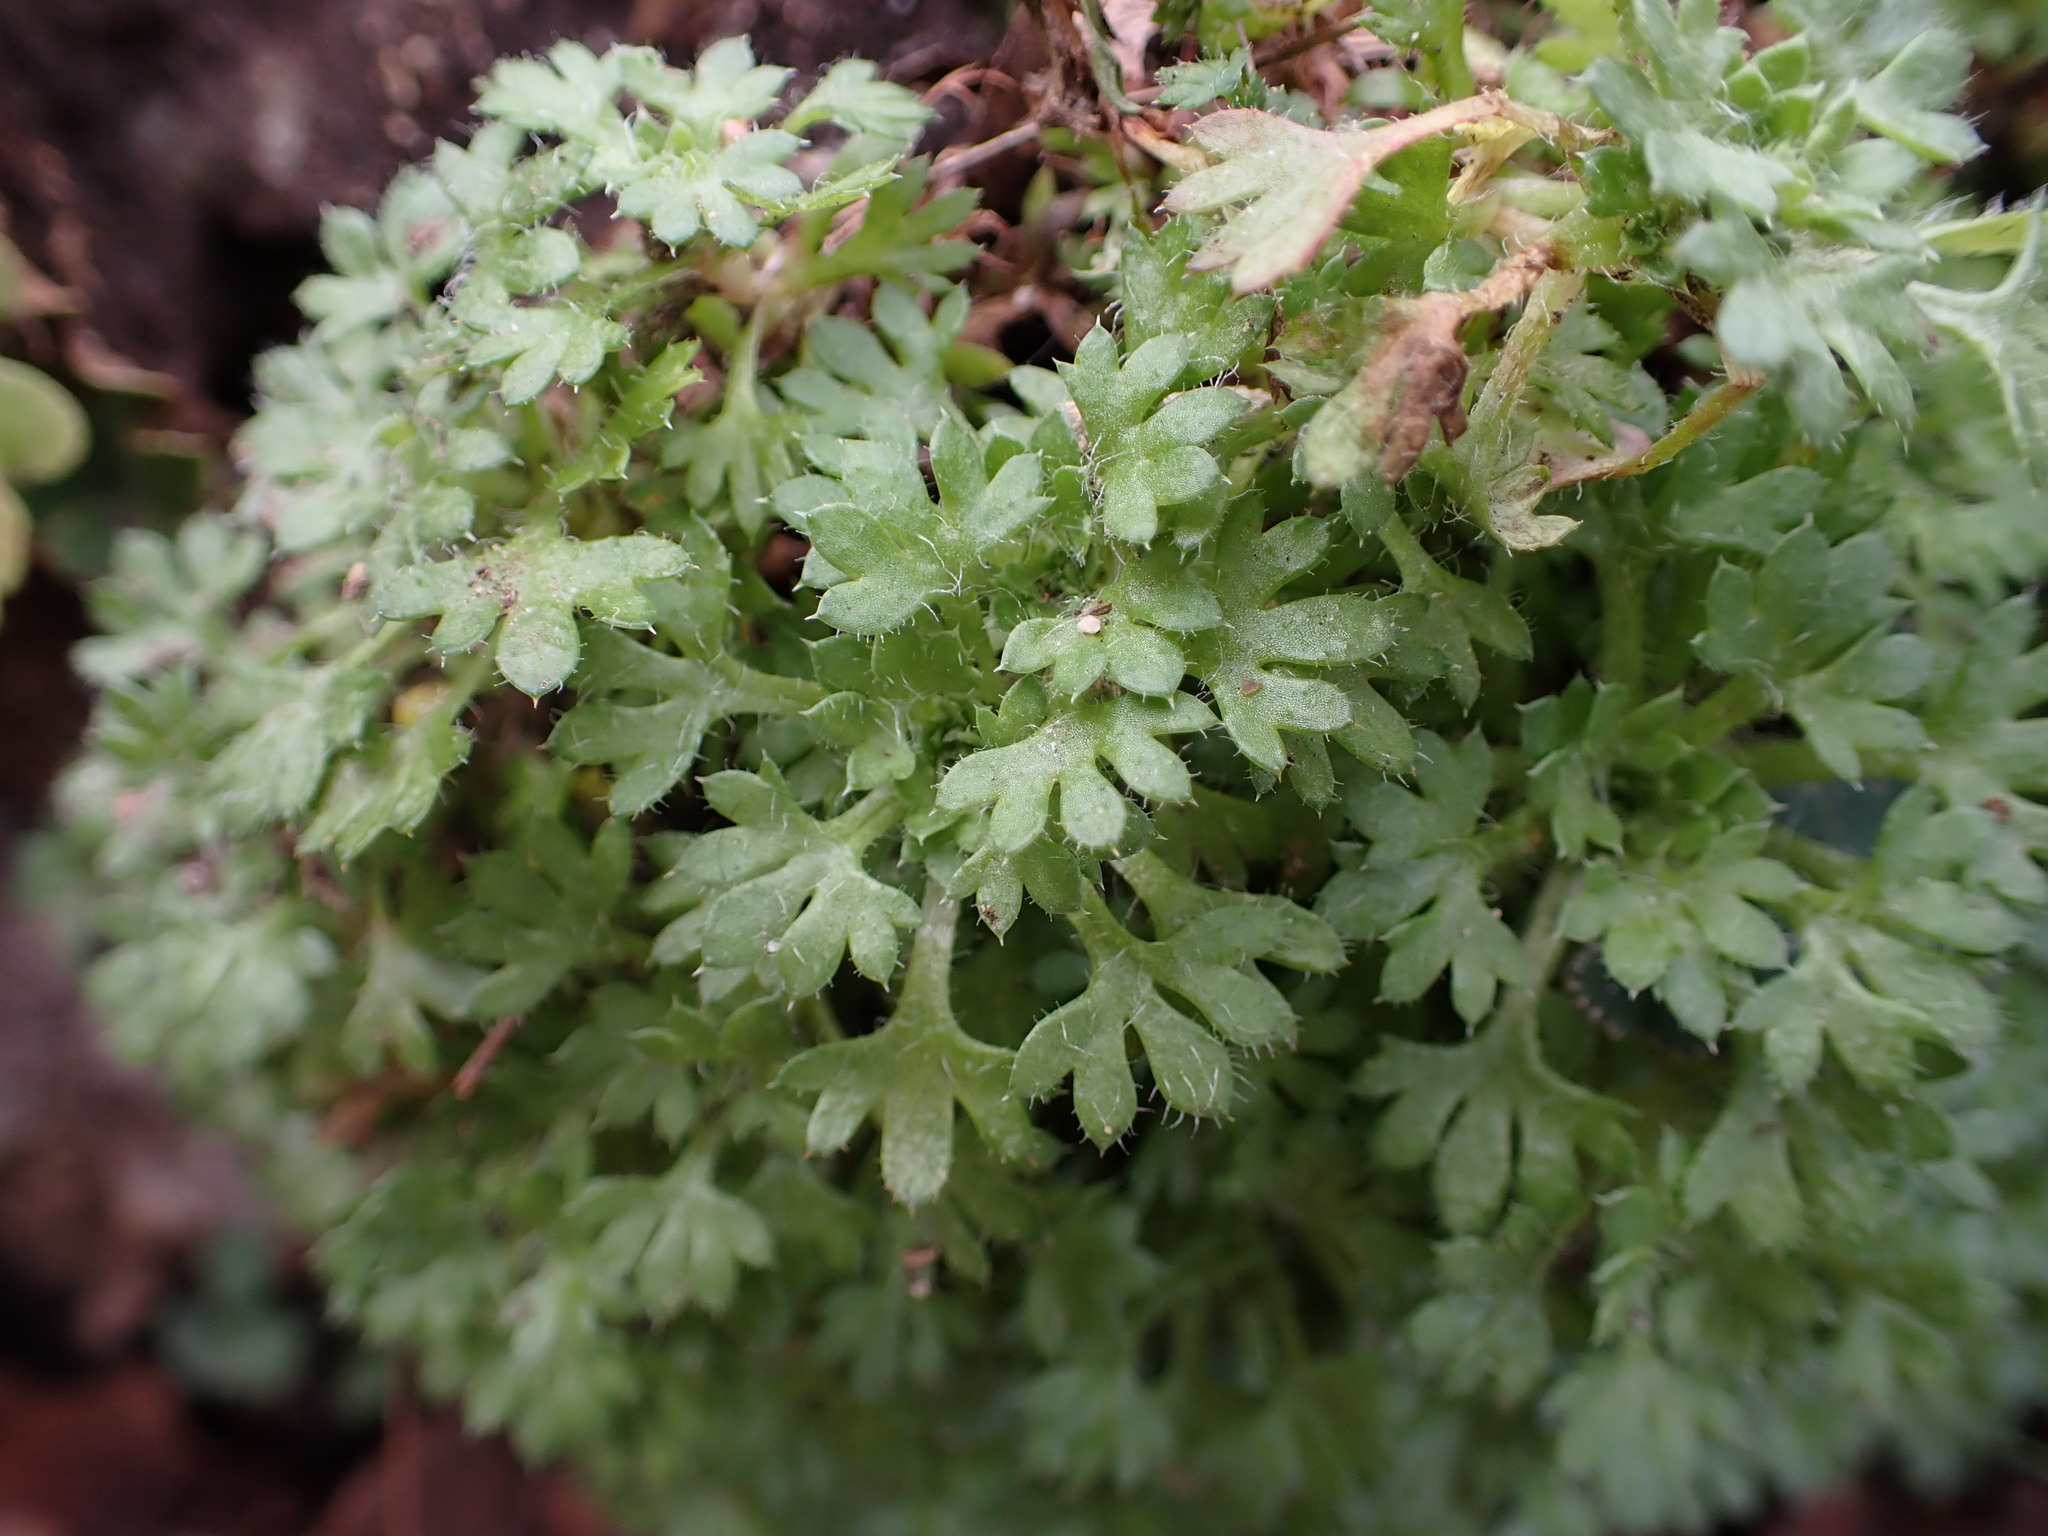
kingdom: Plantae
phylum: Tracheophyta
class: Magnoliopsida
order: Saxifragales
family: Saxifragaceae
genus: Saxifraga
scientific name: Saxifraga fragosoi
